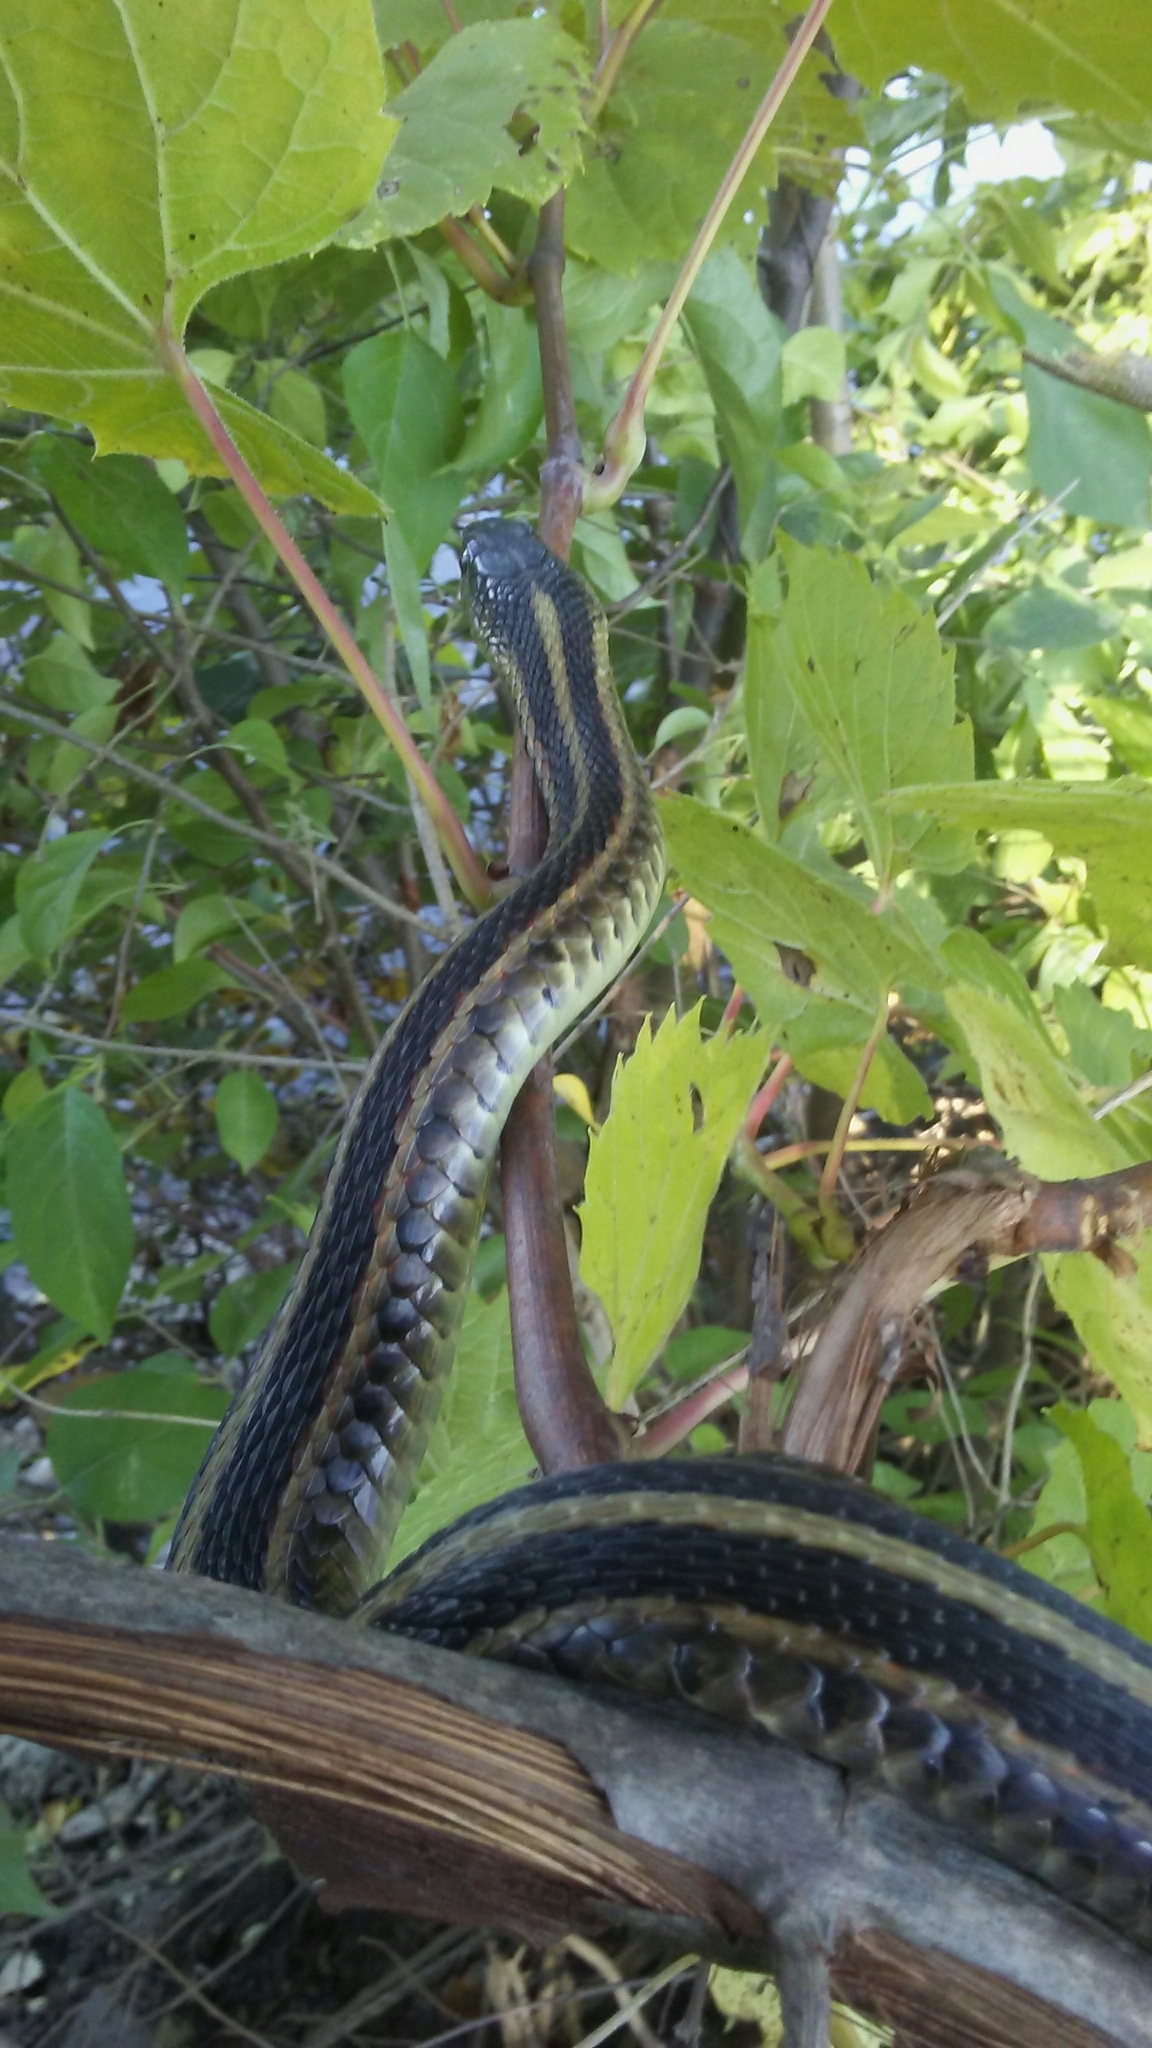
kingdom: Animalia
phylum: Chordata
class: Squamata
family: Colubridae
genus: Thamnophis
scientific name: Thamnophis sirtalis
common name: Common garter snake
